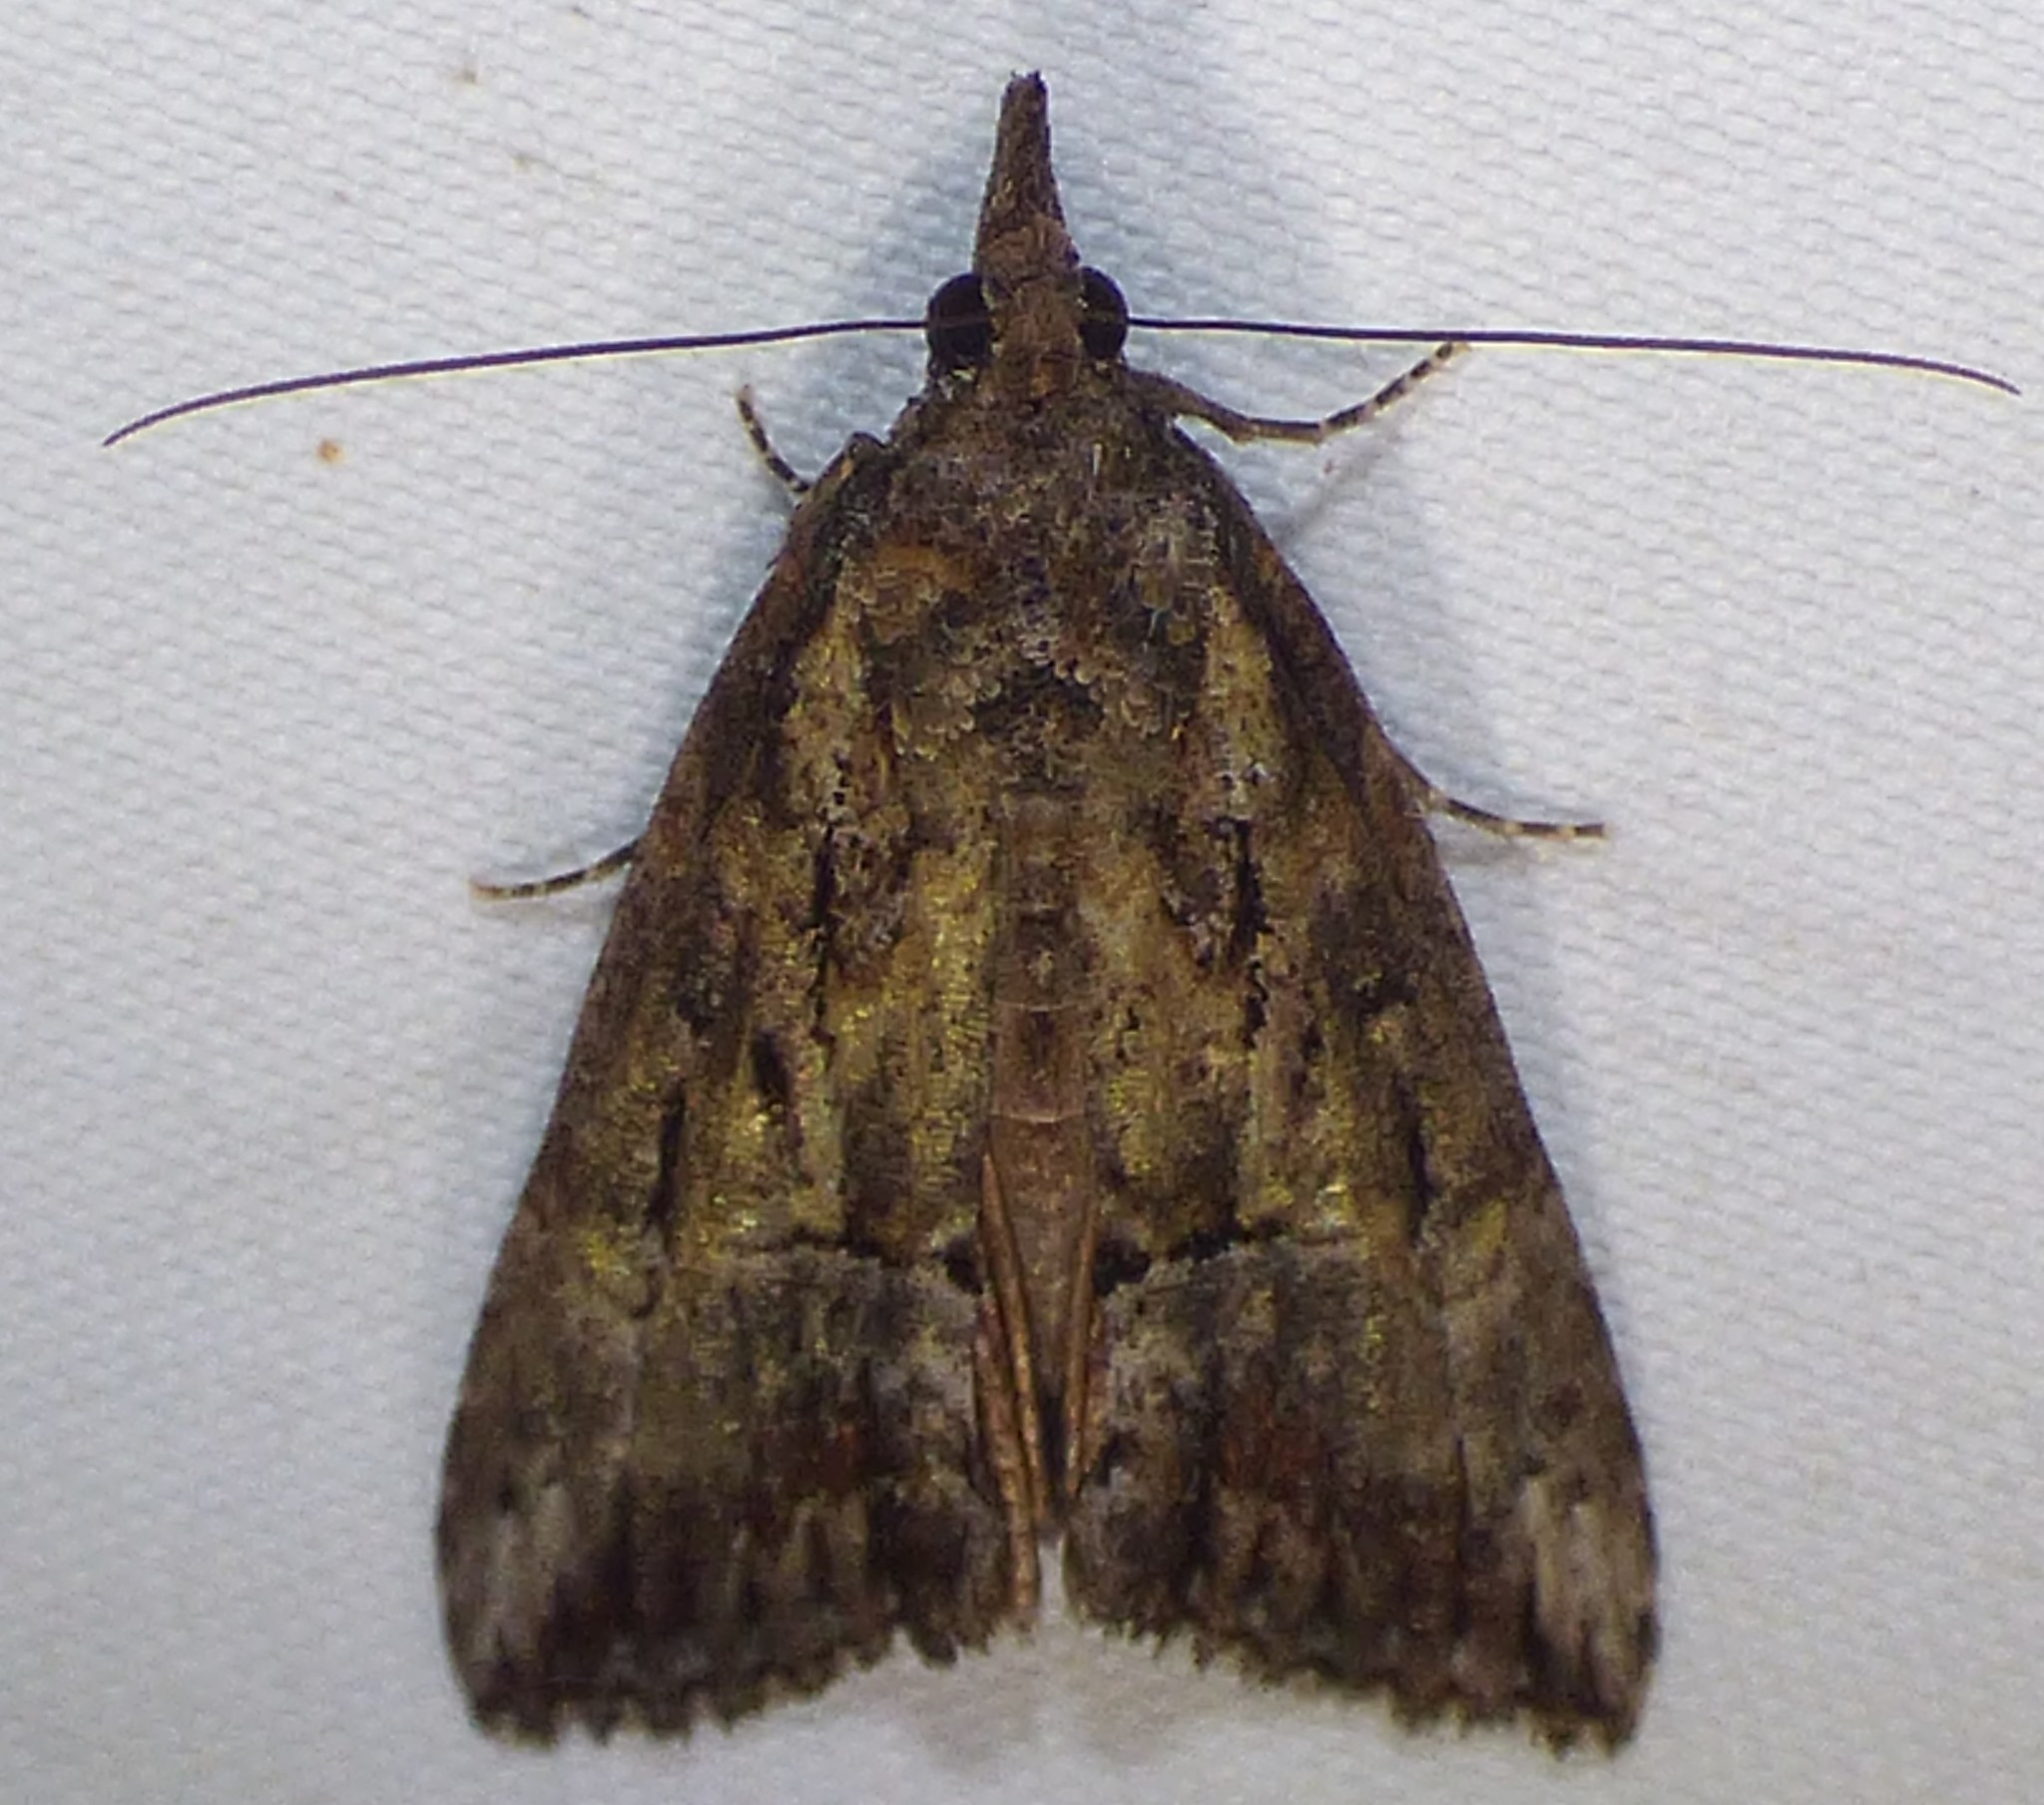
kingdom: Animalia
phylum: Arthropoda
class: Insecta
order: Lepidoptera
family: Erebidae
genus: Hypena
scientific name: Hypena scabra
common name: Green cloverworm
